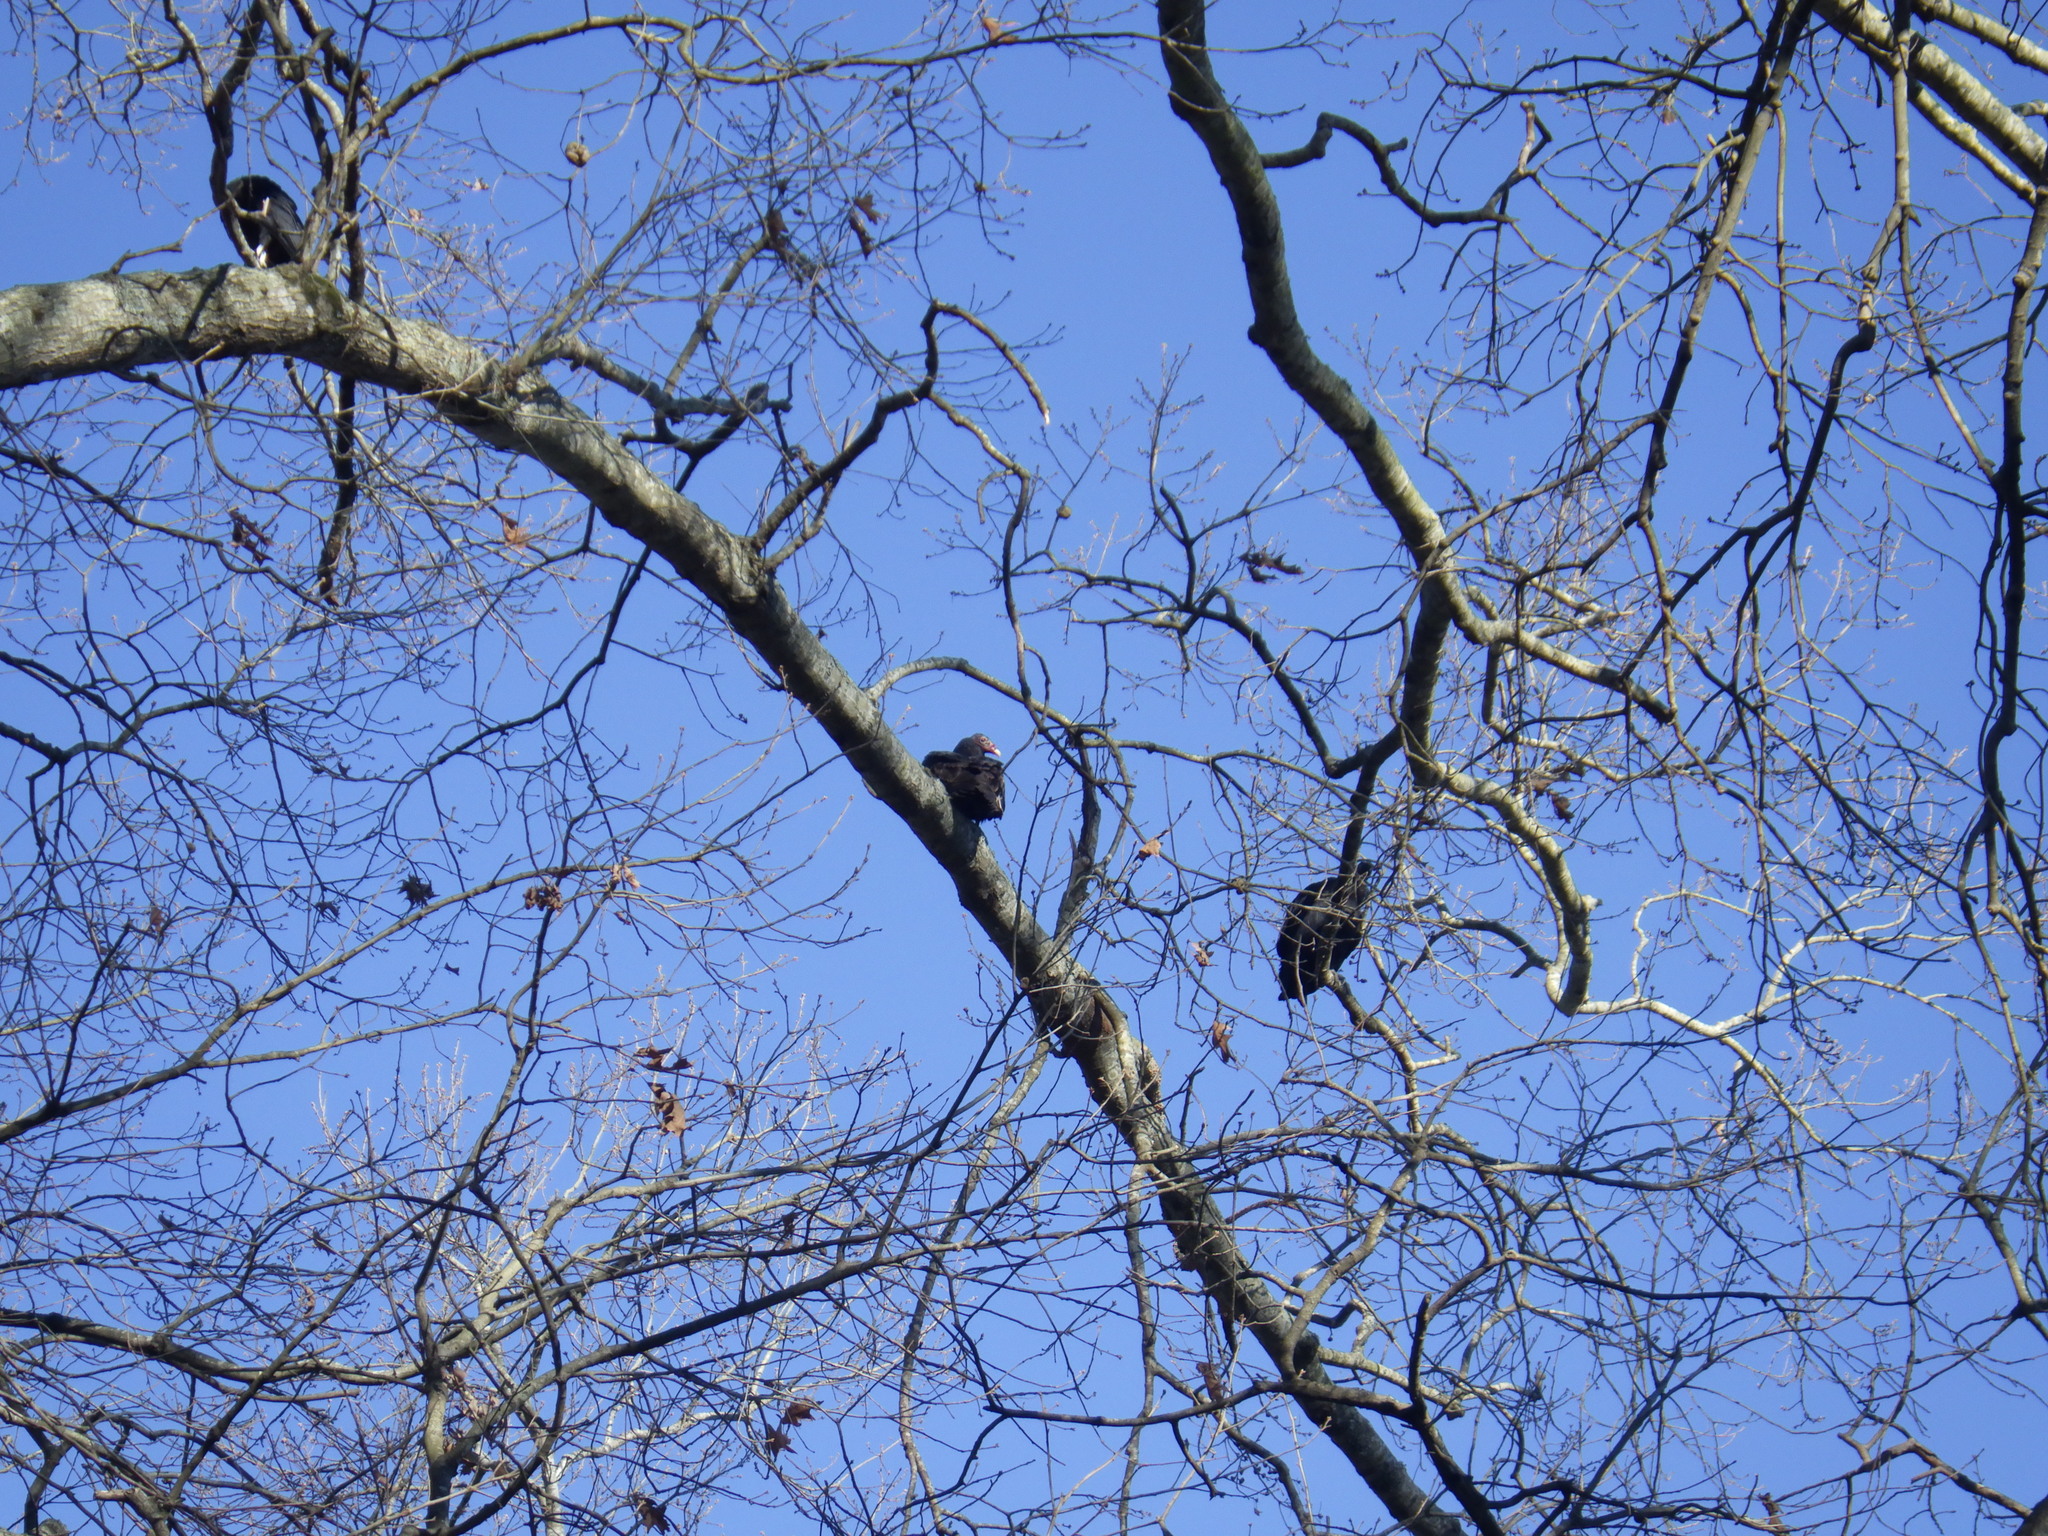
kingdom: Animalia
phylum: Chordata
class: Aves
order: Accipitriformes
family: Cathartidae
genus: Cathartes
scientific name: Cathartes aura
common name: Turkey vulture
